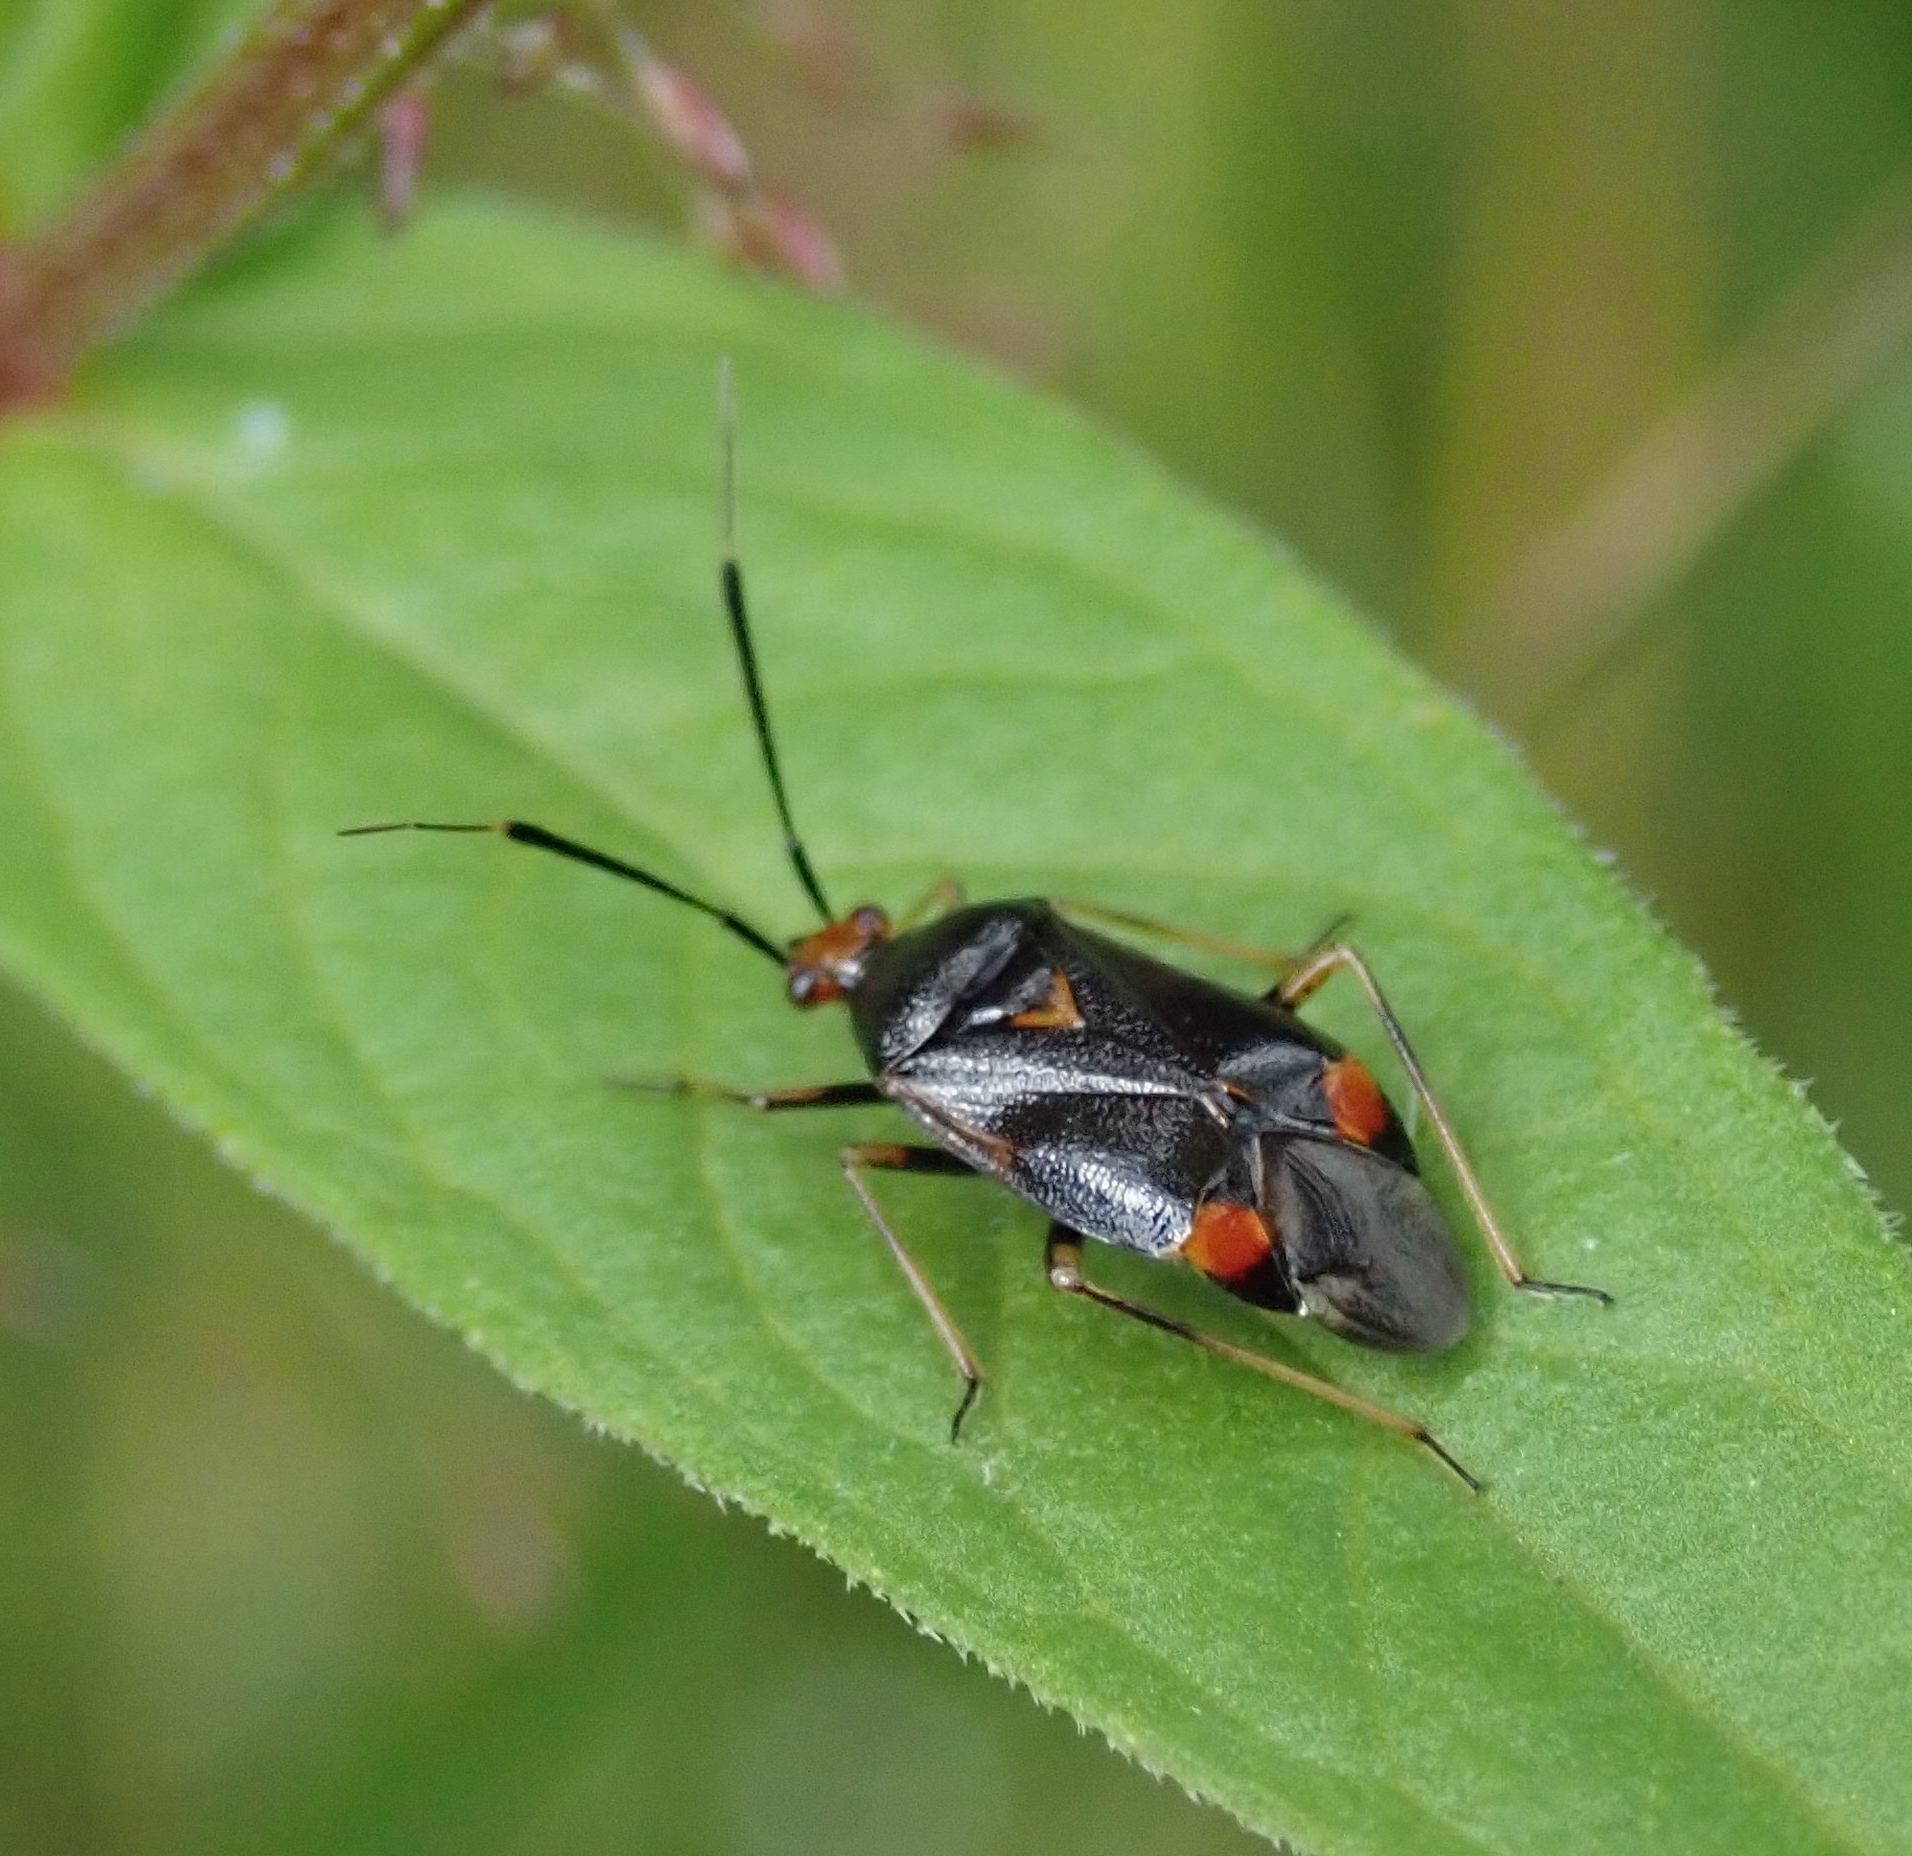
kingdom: Animalia
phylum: Arthropoda
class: Insecta
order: Hemiptera
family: Miridae
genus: Deraeocoris
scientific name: Deraeocoris ruber
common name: Plant bug
